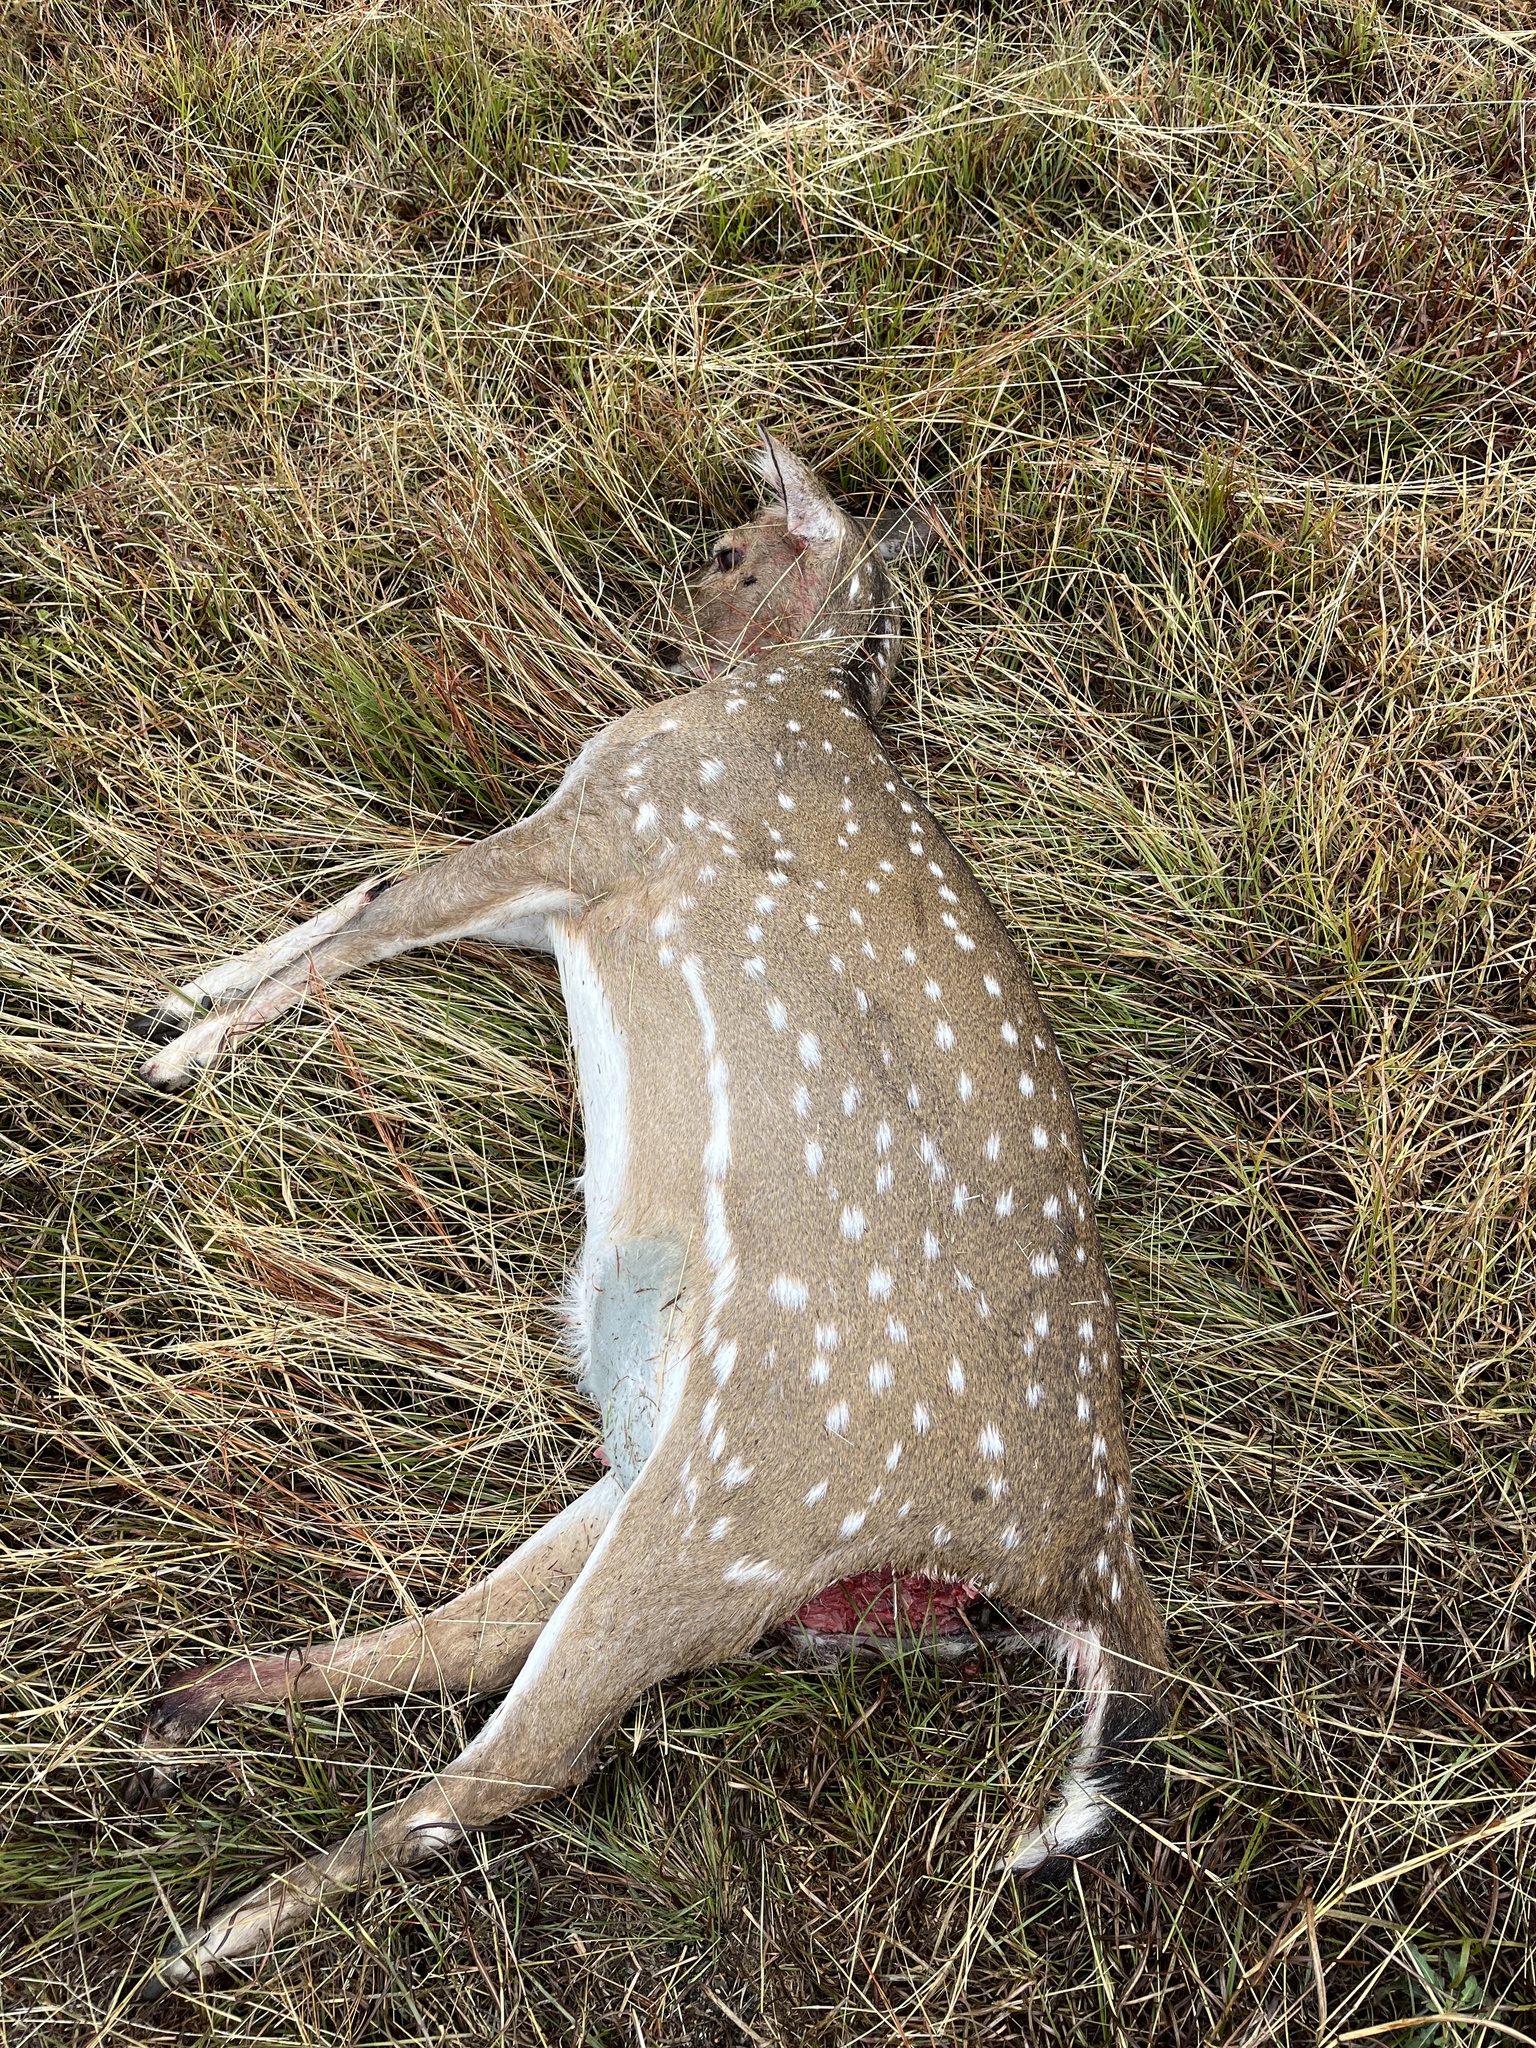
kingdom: Animalia
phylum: Chordata
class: Mammalia
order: Artiodactyla
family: Cervidae
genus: Axis
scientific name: Axis axis
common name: Chital
